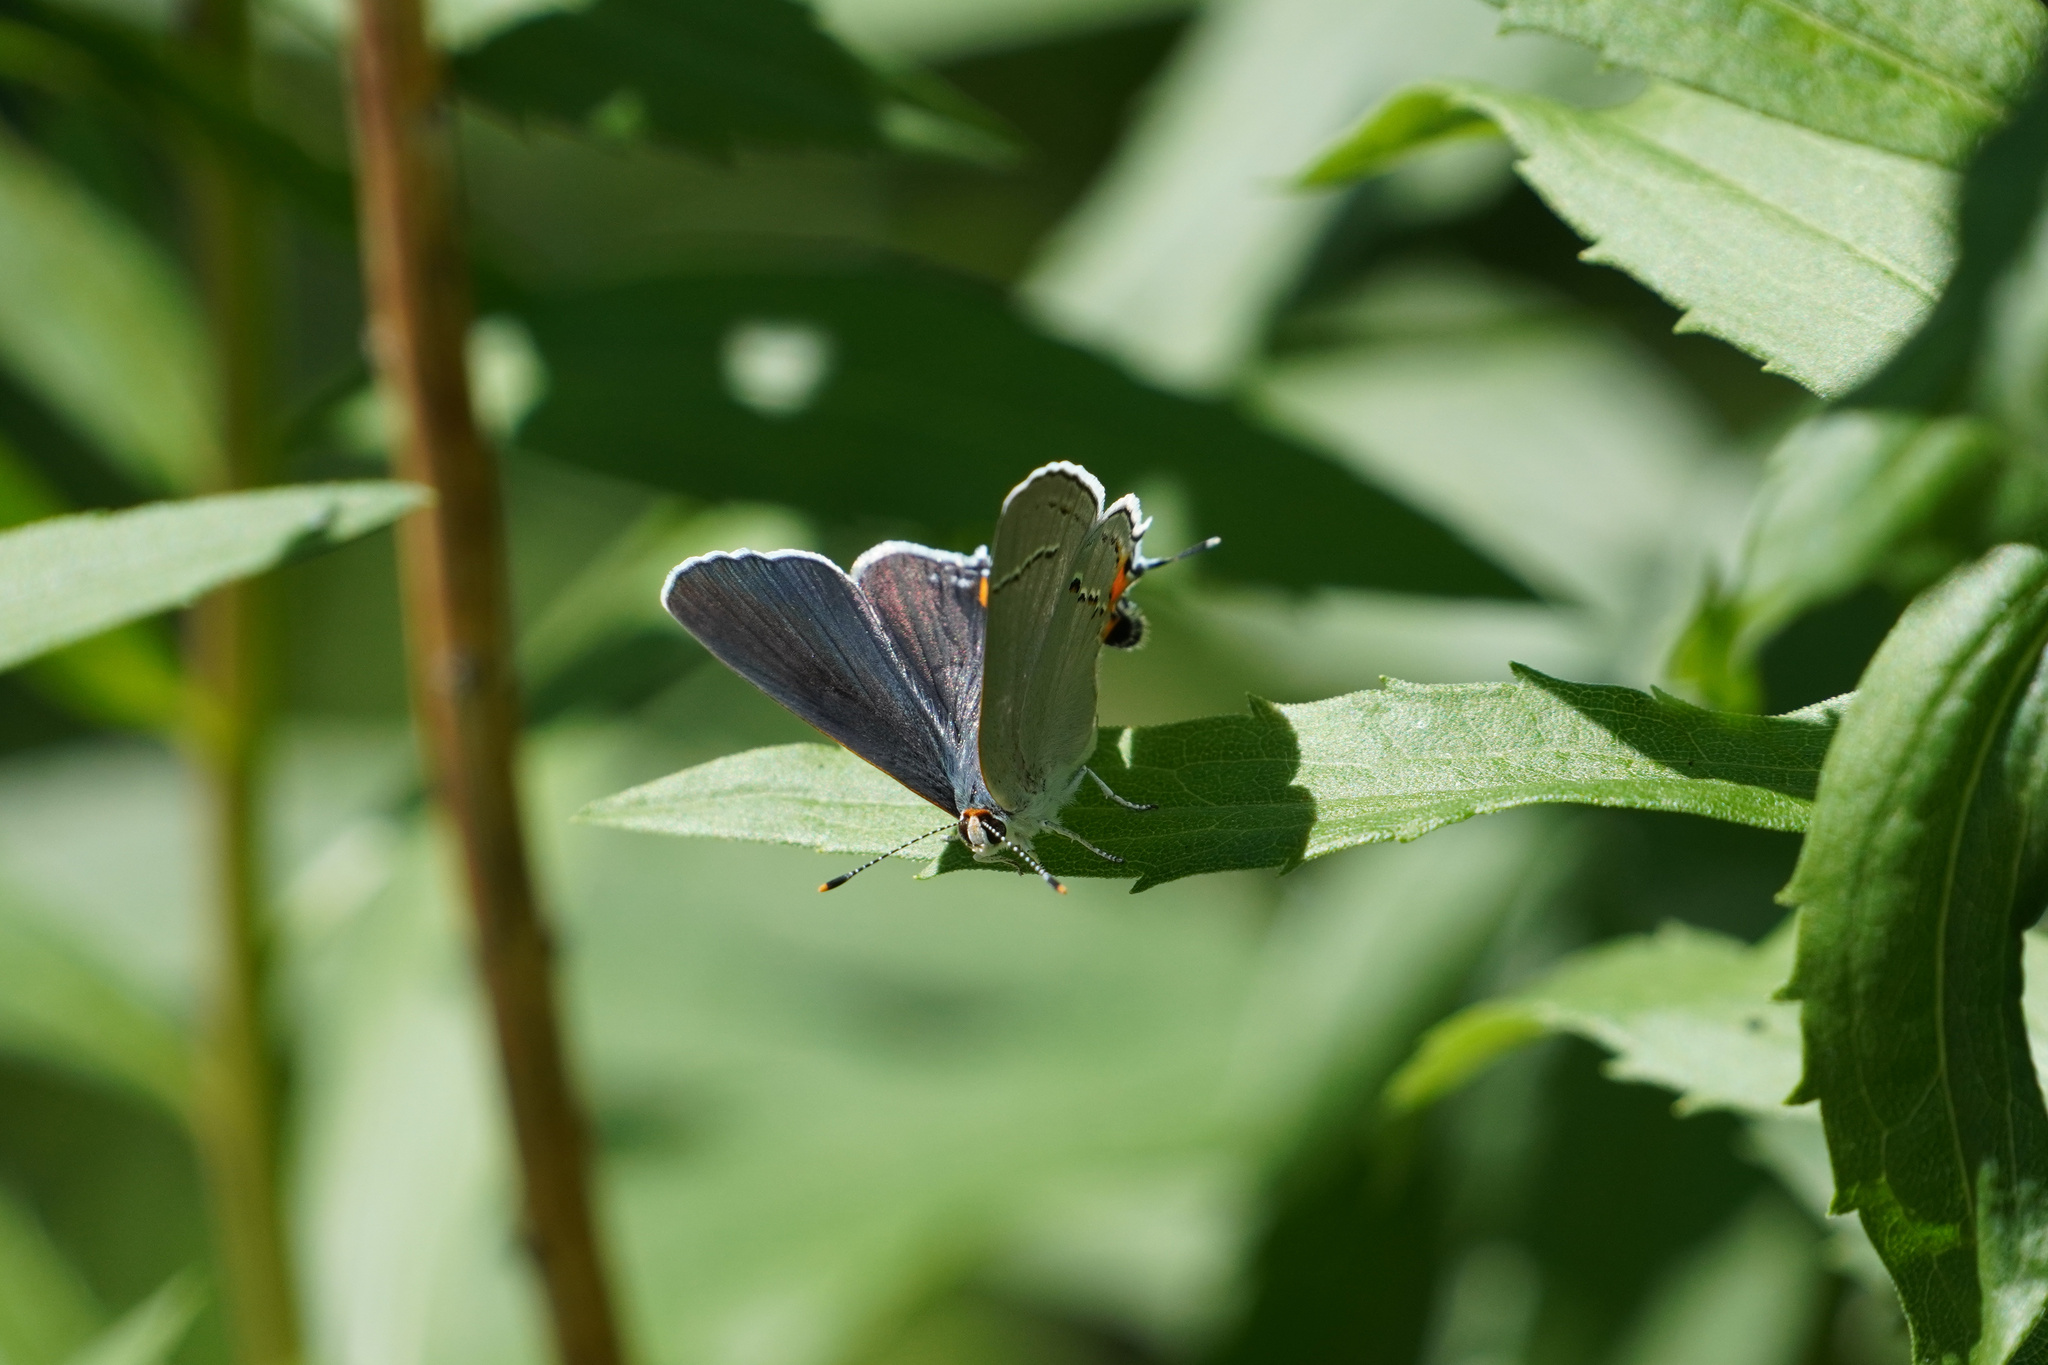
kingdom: Animalia
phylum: Arthropoda
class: Insecta
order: Lepidoptera
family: Lycaenidae
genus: Strymon
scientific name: Strymon melinus
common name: Gray hairstreak
